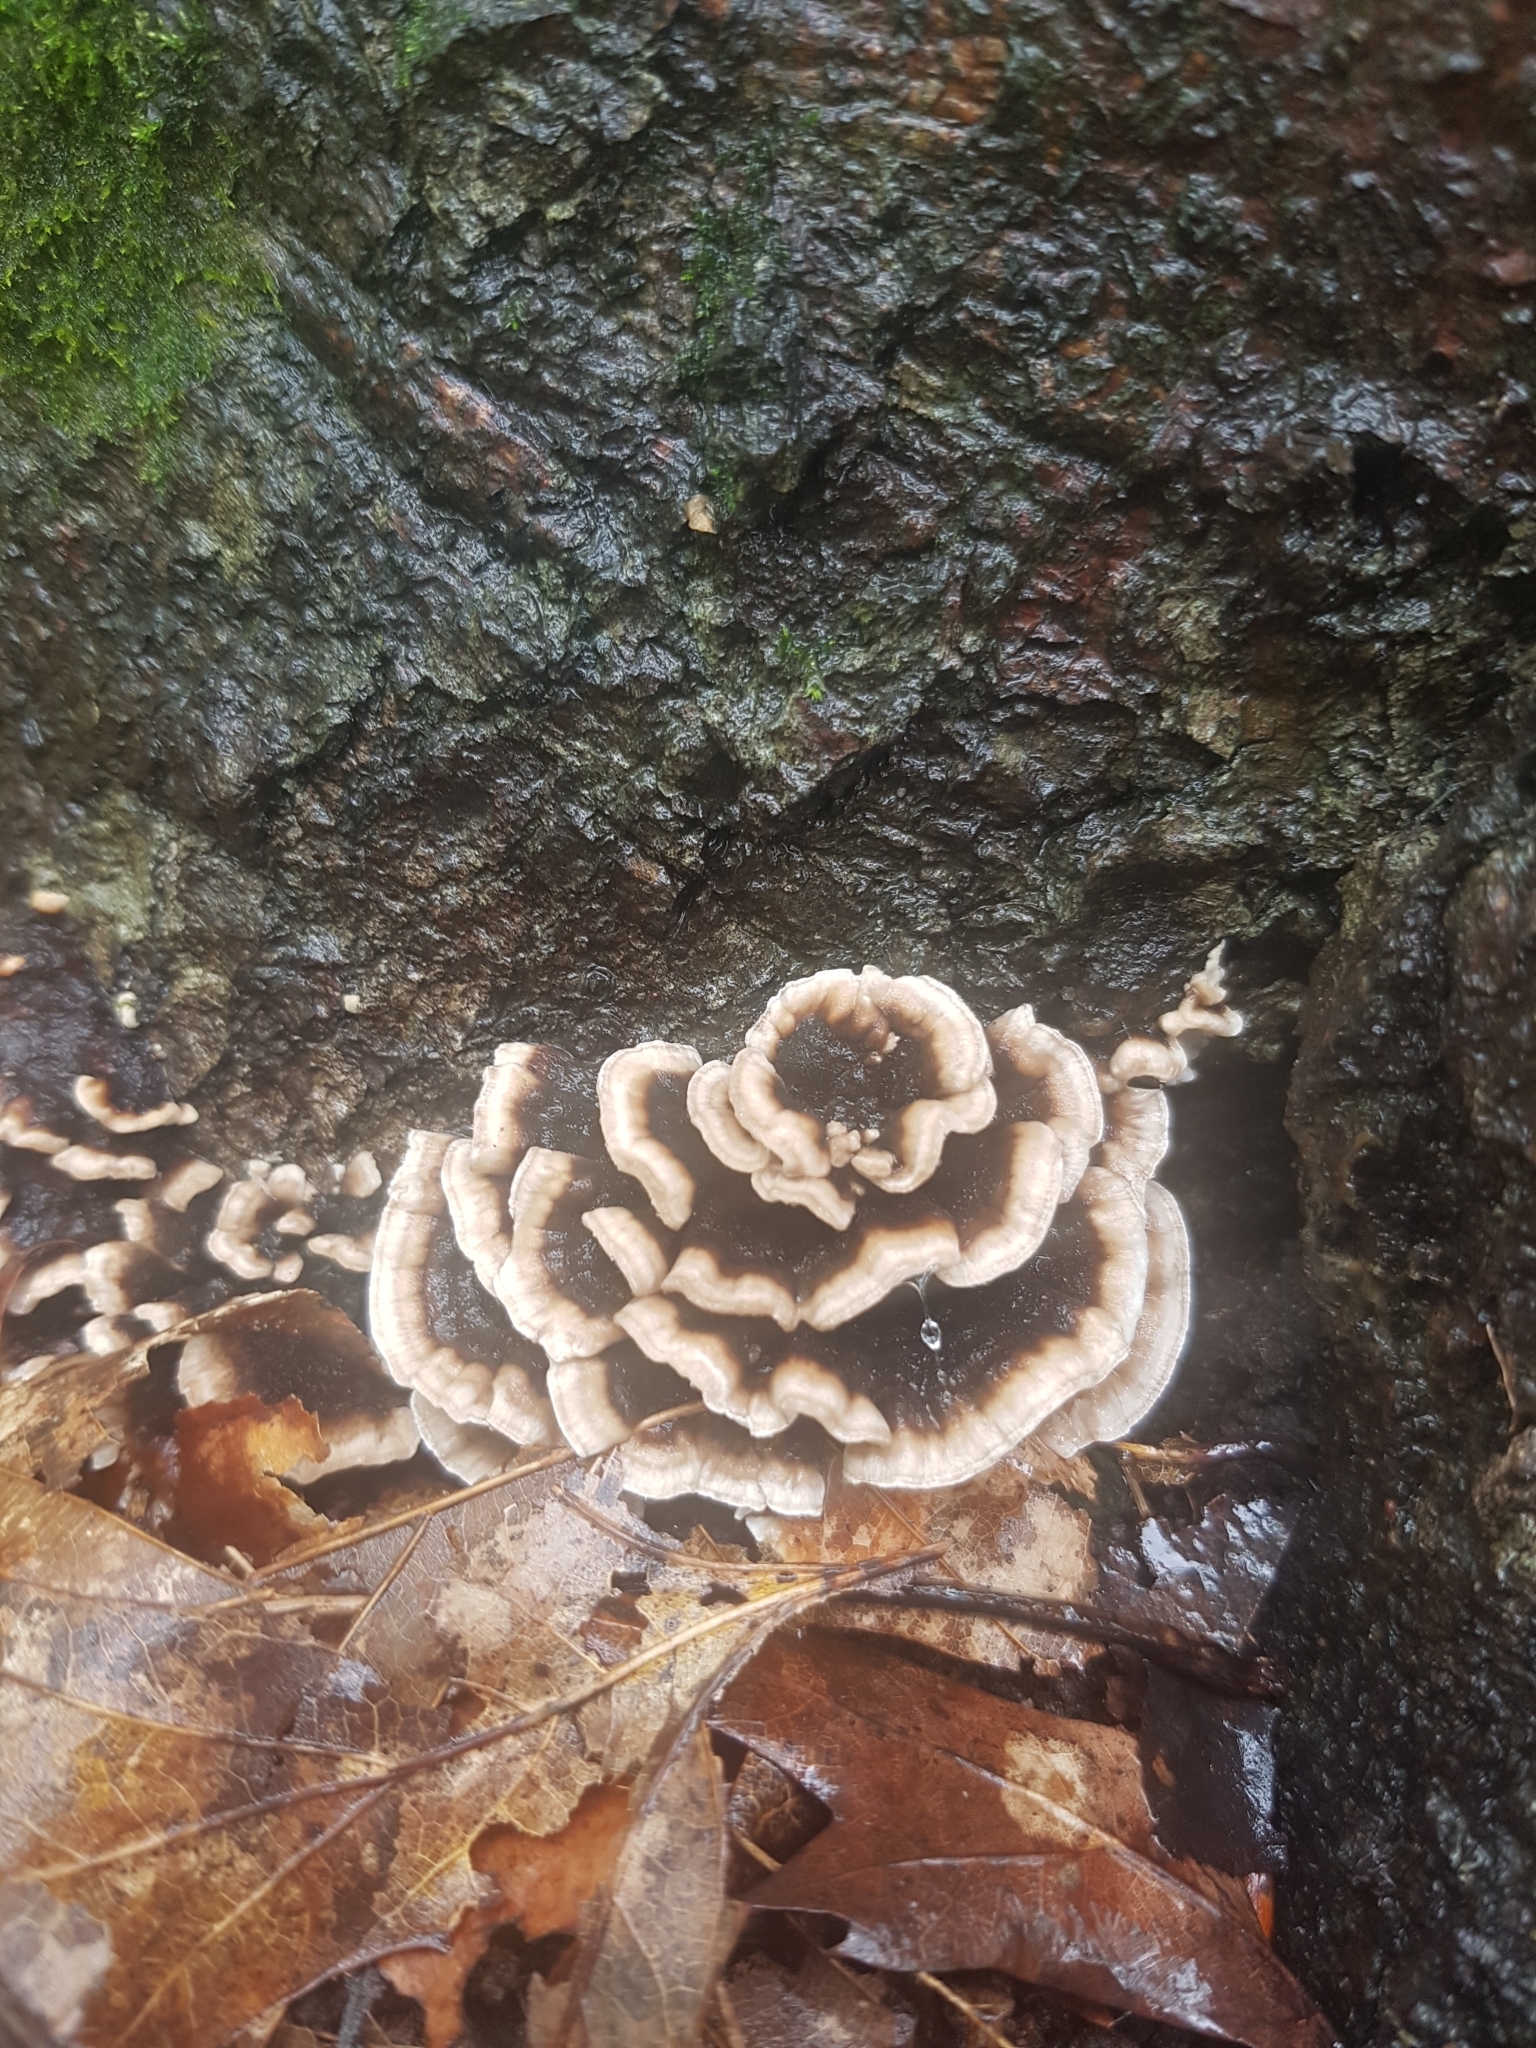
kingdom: Fungi
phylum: Basidiomycota
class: Agaricomycetes
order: Polyporales
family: Polyporaceae
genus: Trametes
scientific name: Trametes versicolor
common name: Turkeytail
